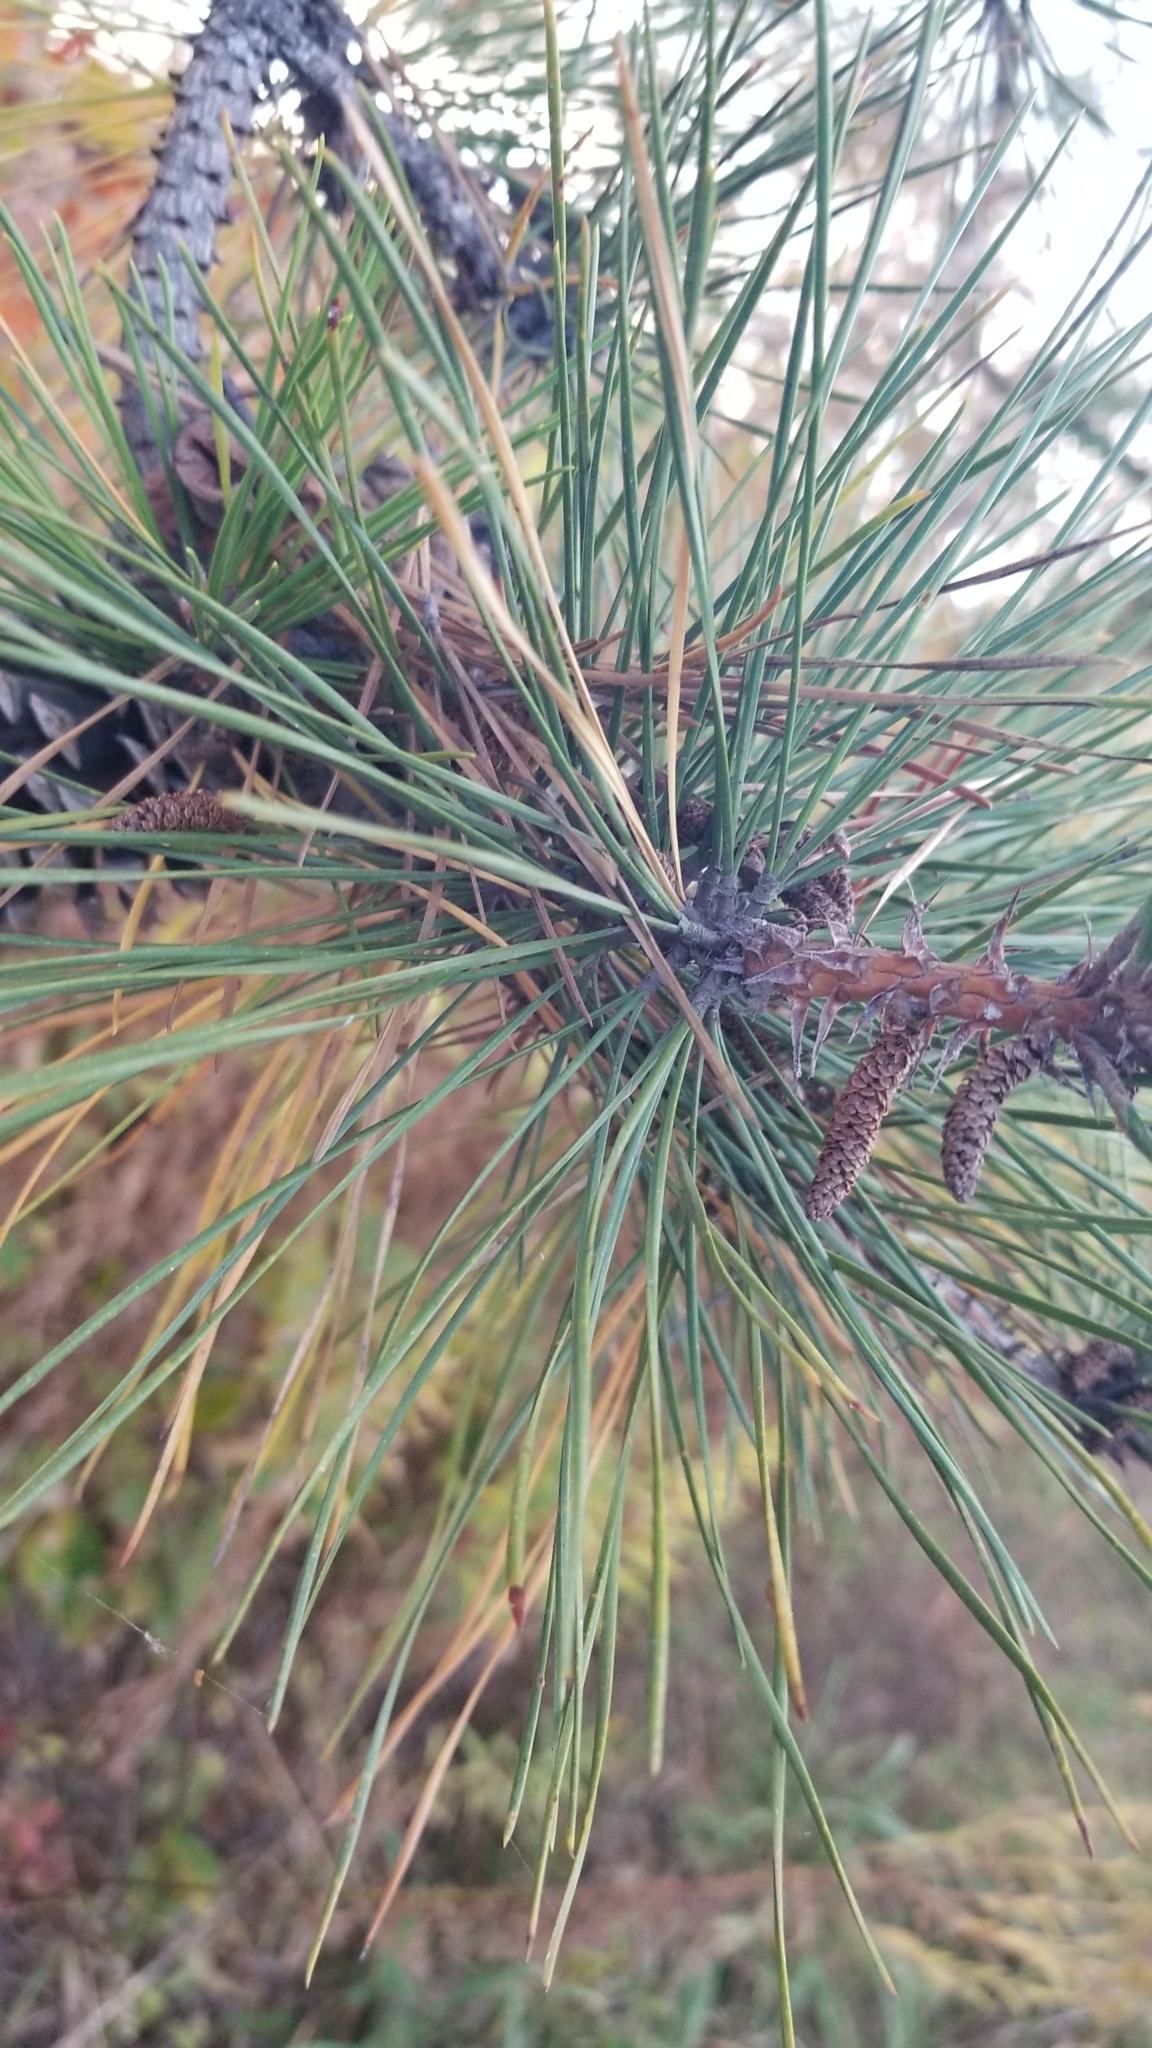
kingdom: Plantae
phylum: Tracheophyta
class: Pinopsida
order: Pinales
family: Pinaceae
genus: Pinus
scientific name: Pinus rigida
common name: Pitch pine
